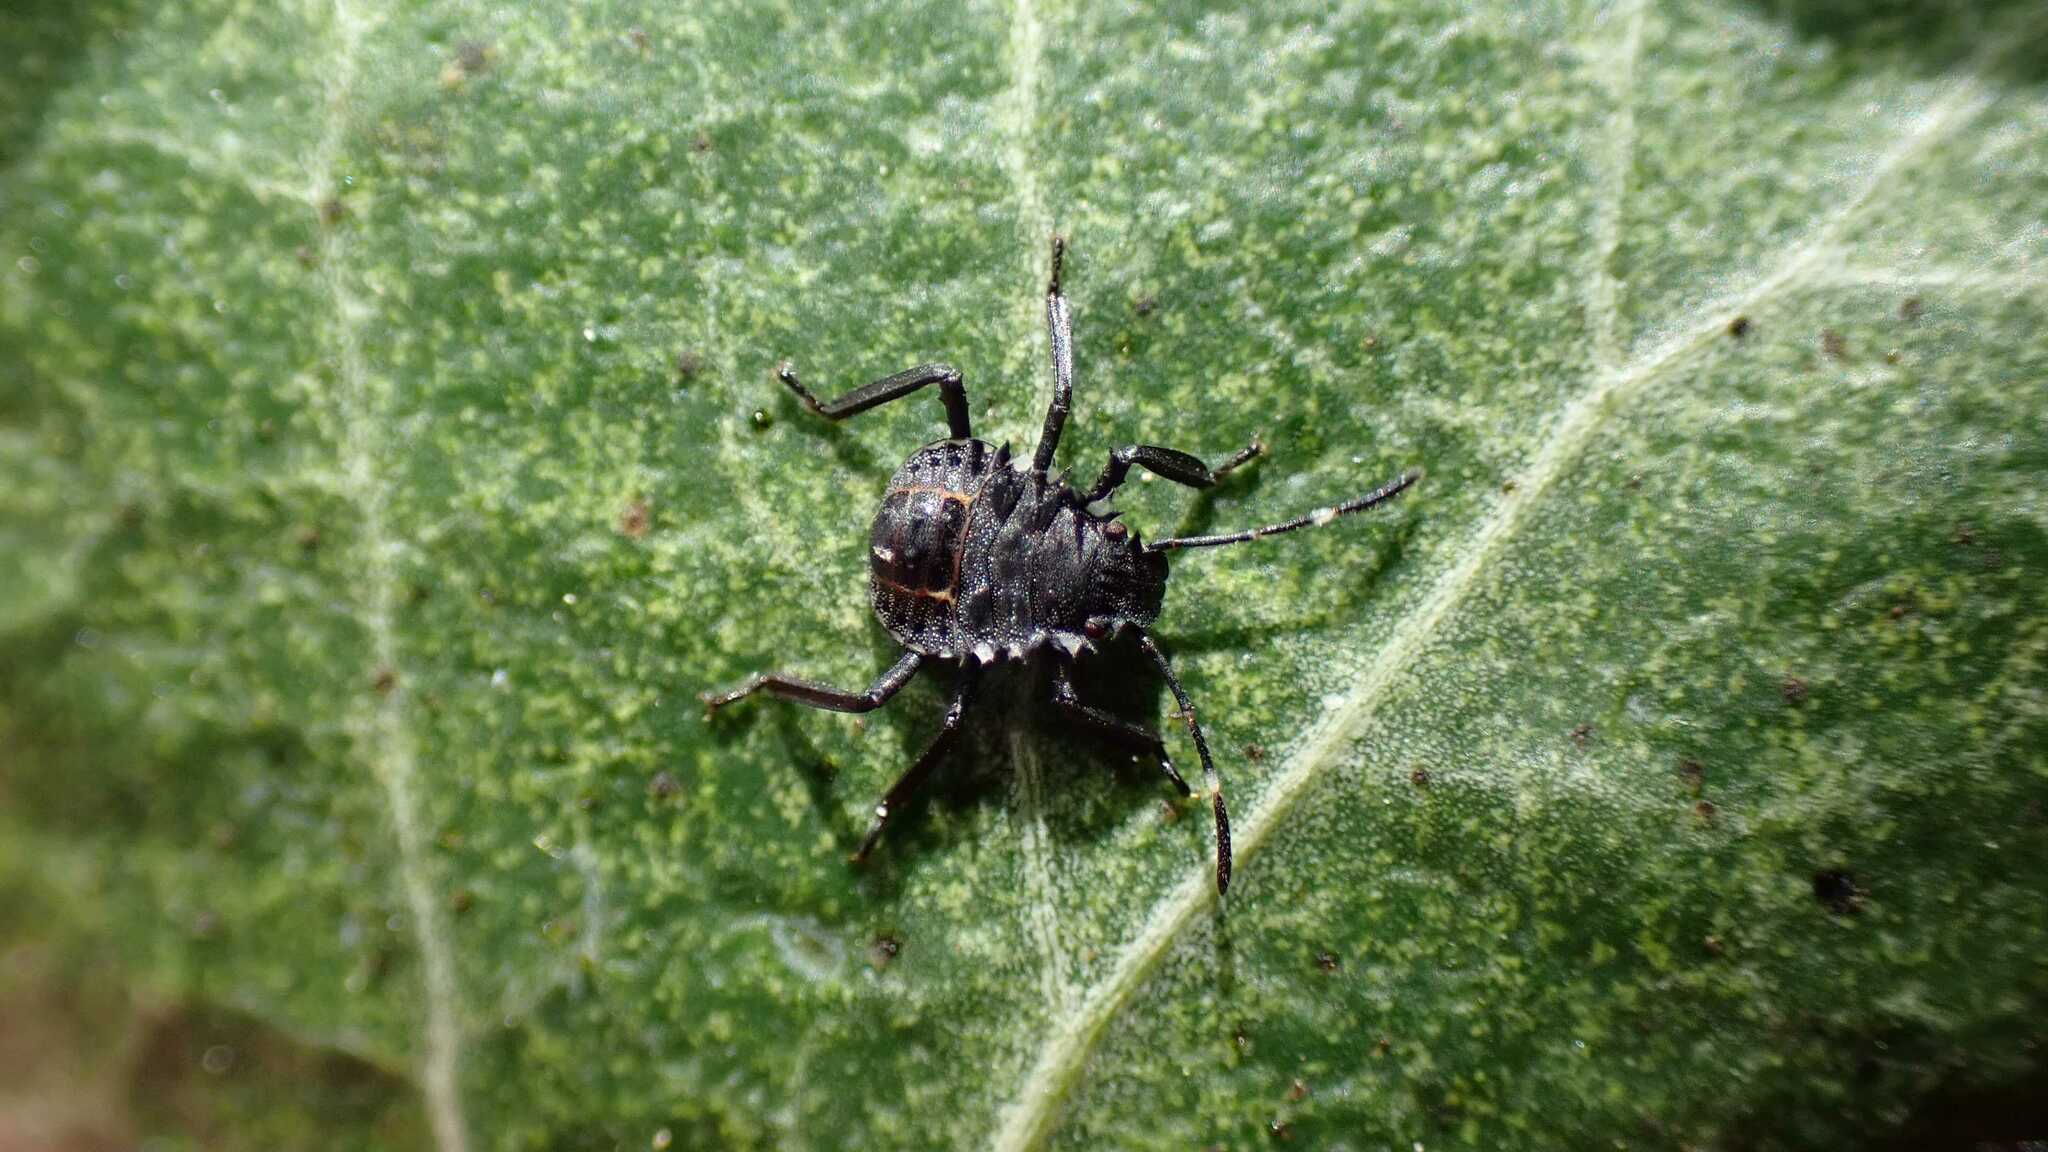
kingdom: Animalia
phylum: Arthropoda
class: Insecta
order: Hemiptera
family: Pentatomidae
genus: Halyomorpha
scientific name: Halyomorpha halys
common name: Brown marmorated stink bug
